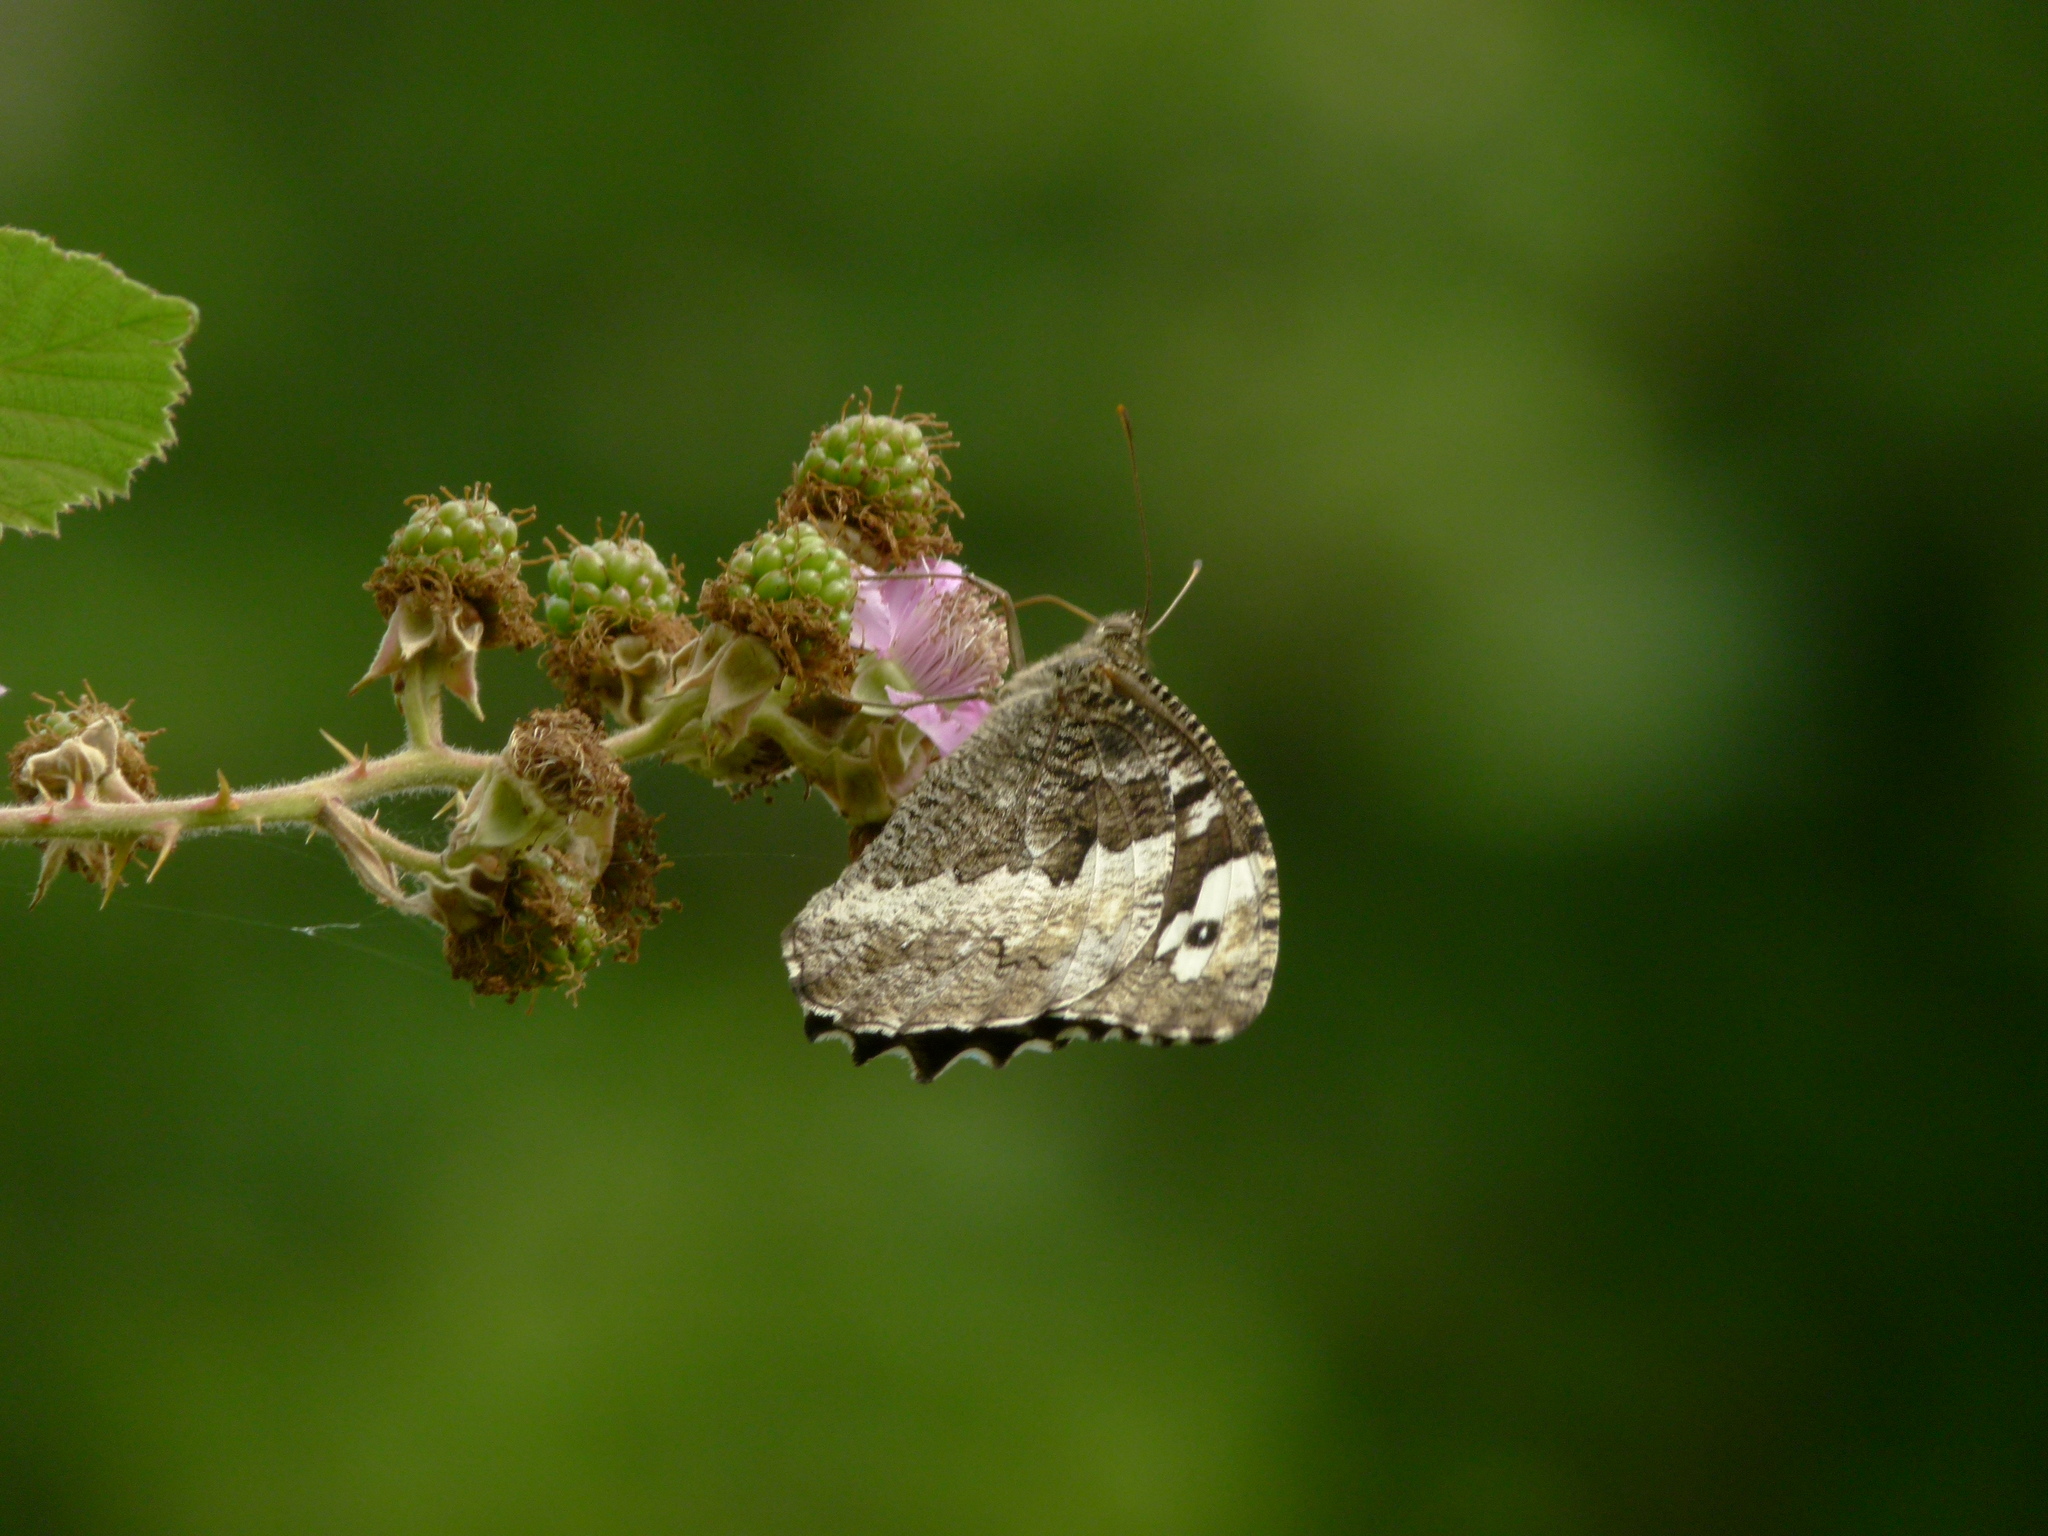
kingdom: Animalia
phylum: Arthropoda
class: Insecta
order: Lepidoptera
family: Lycaenidae
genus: Loweia
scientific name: Loweia tityrus
